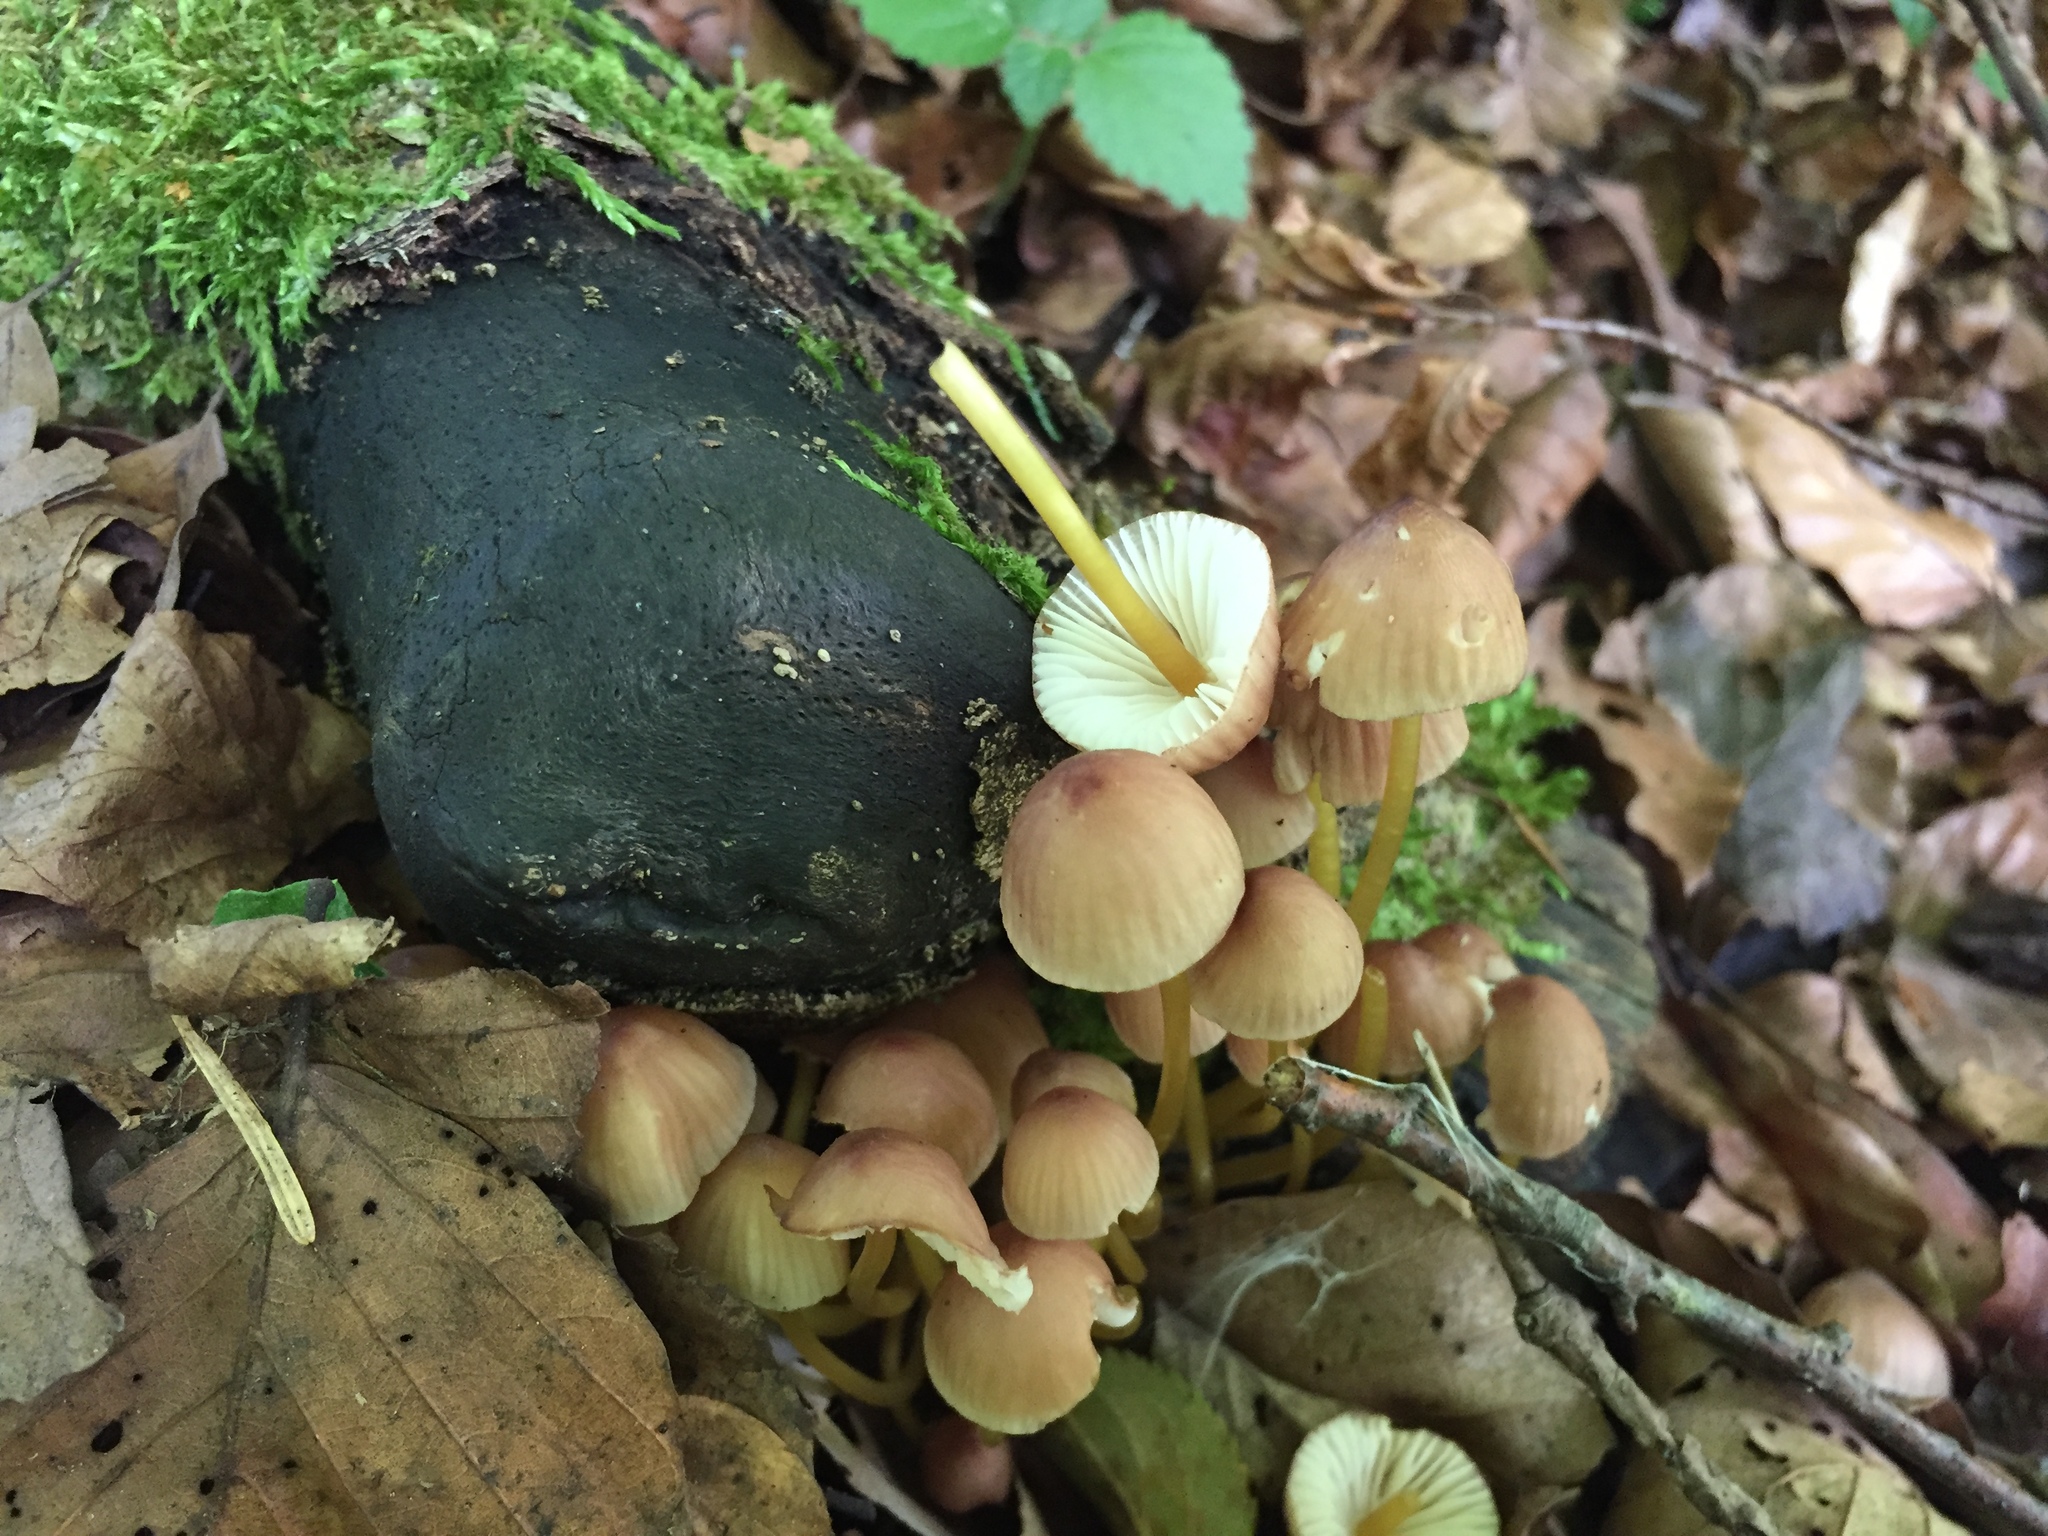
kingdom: Fungi
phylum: Basidiomycota
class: Agaricomycetes
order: Agaricales
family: Mycenaceae
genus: Mycena
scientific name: Mycena renati
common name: Beautiful bonnet
